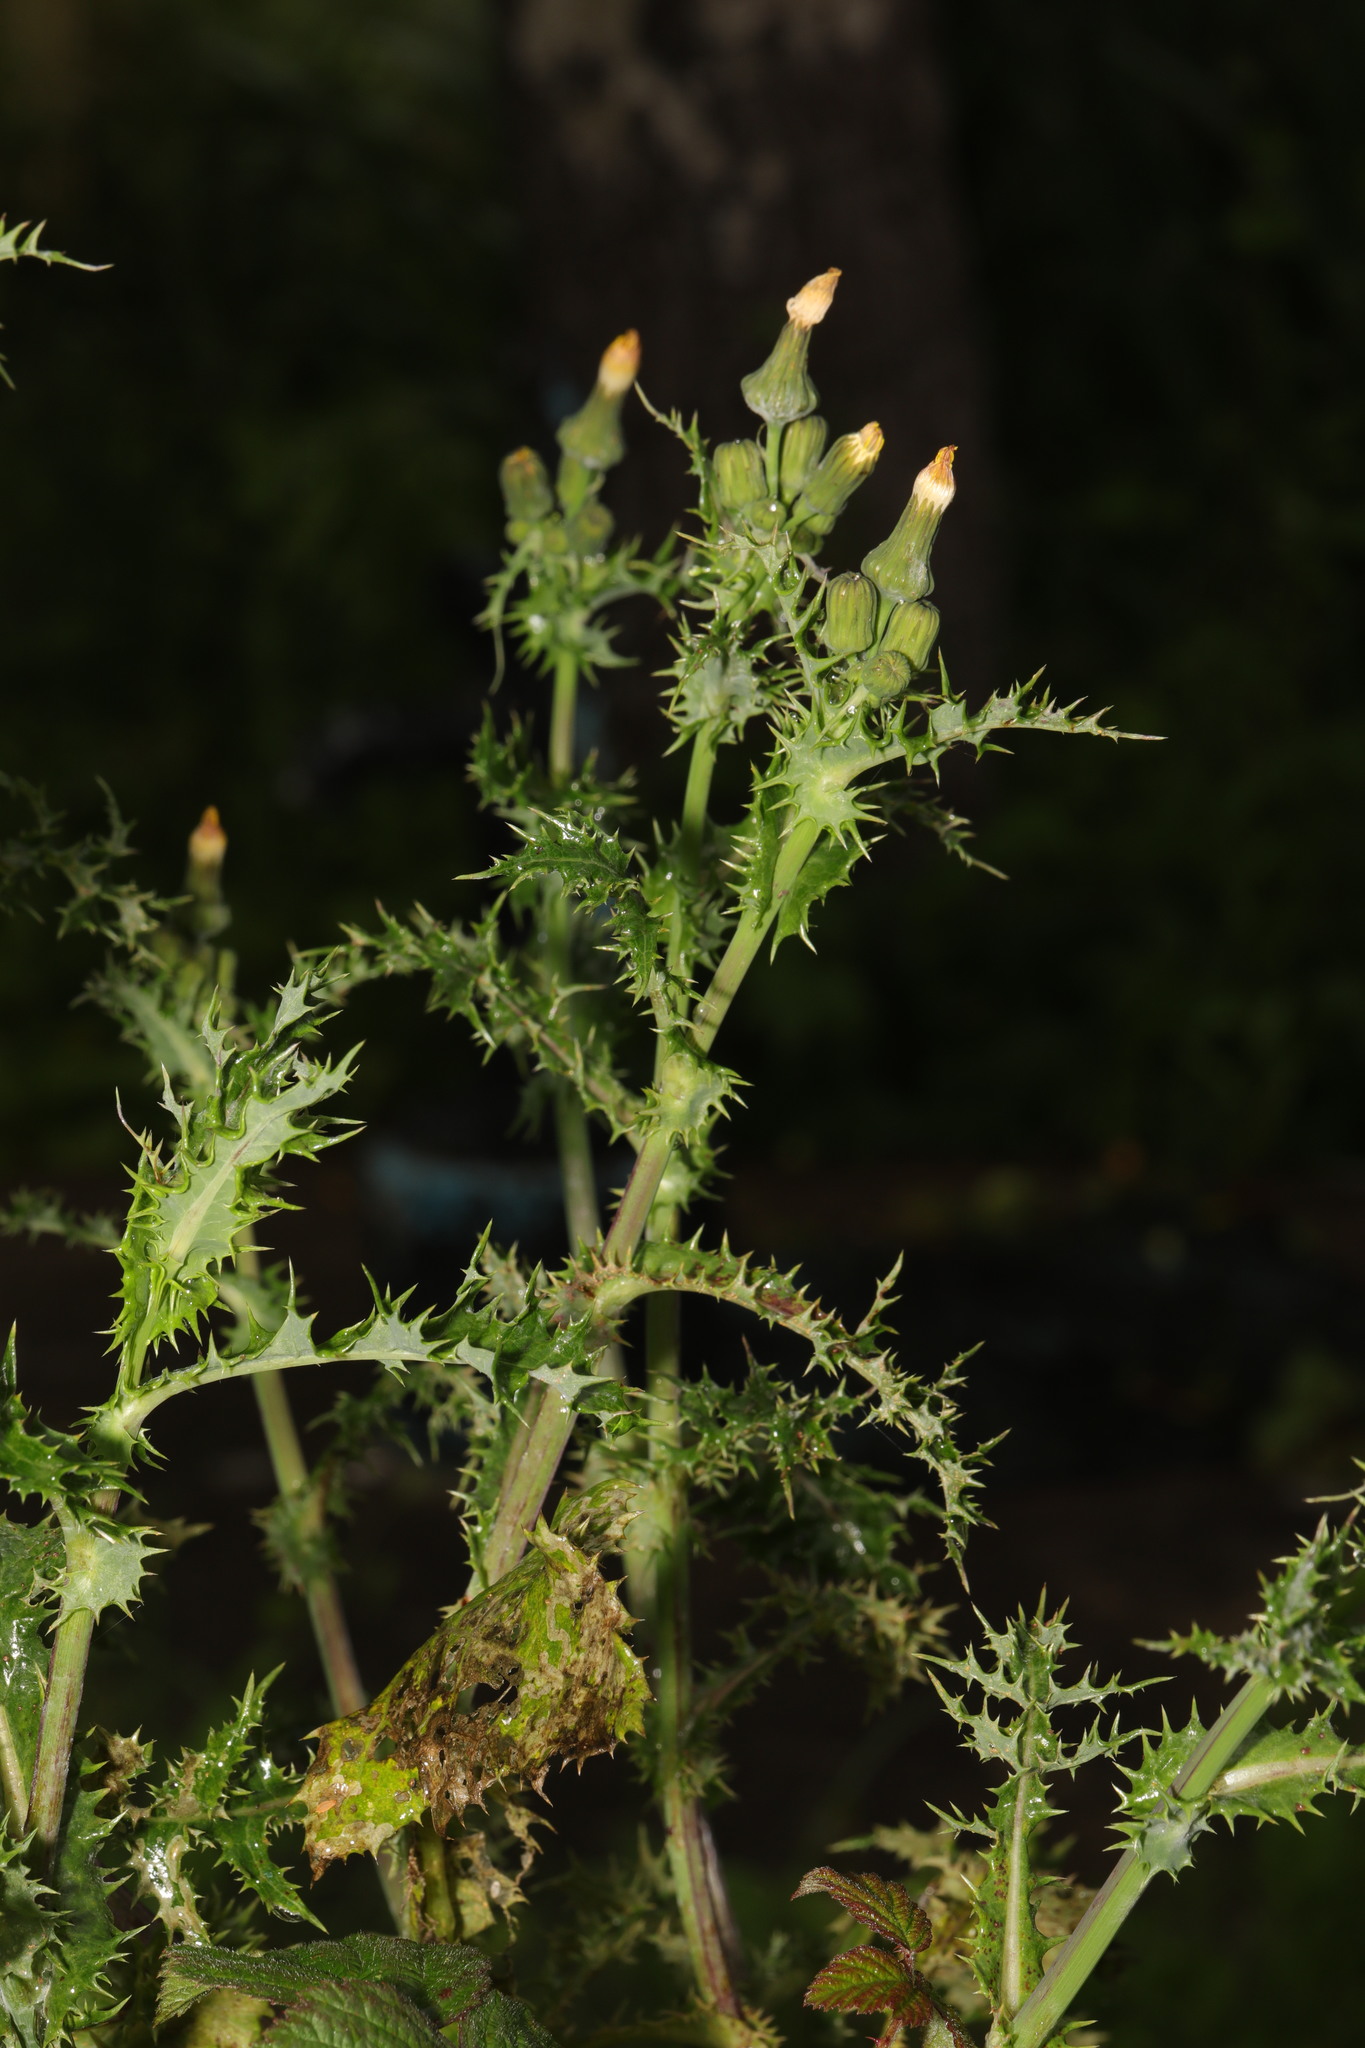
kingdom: Plantae
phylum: Tracheophyta
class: Magnoliopsida
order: Asterales
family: Asteraceae
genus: Sonchus
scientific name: Sonchus asper
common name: Prickly sow-thistle
